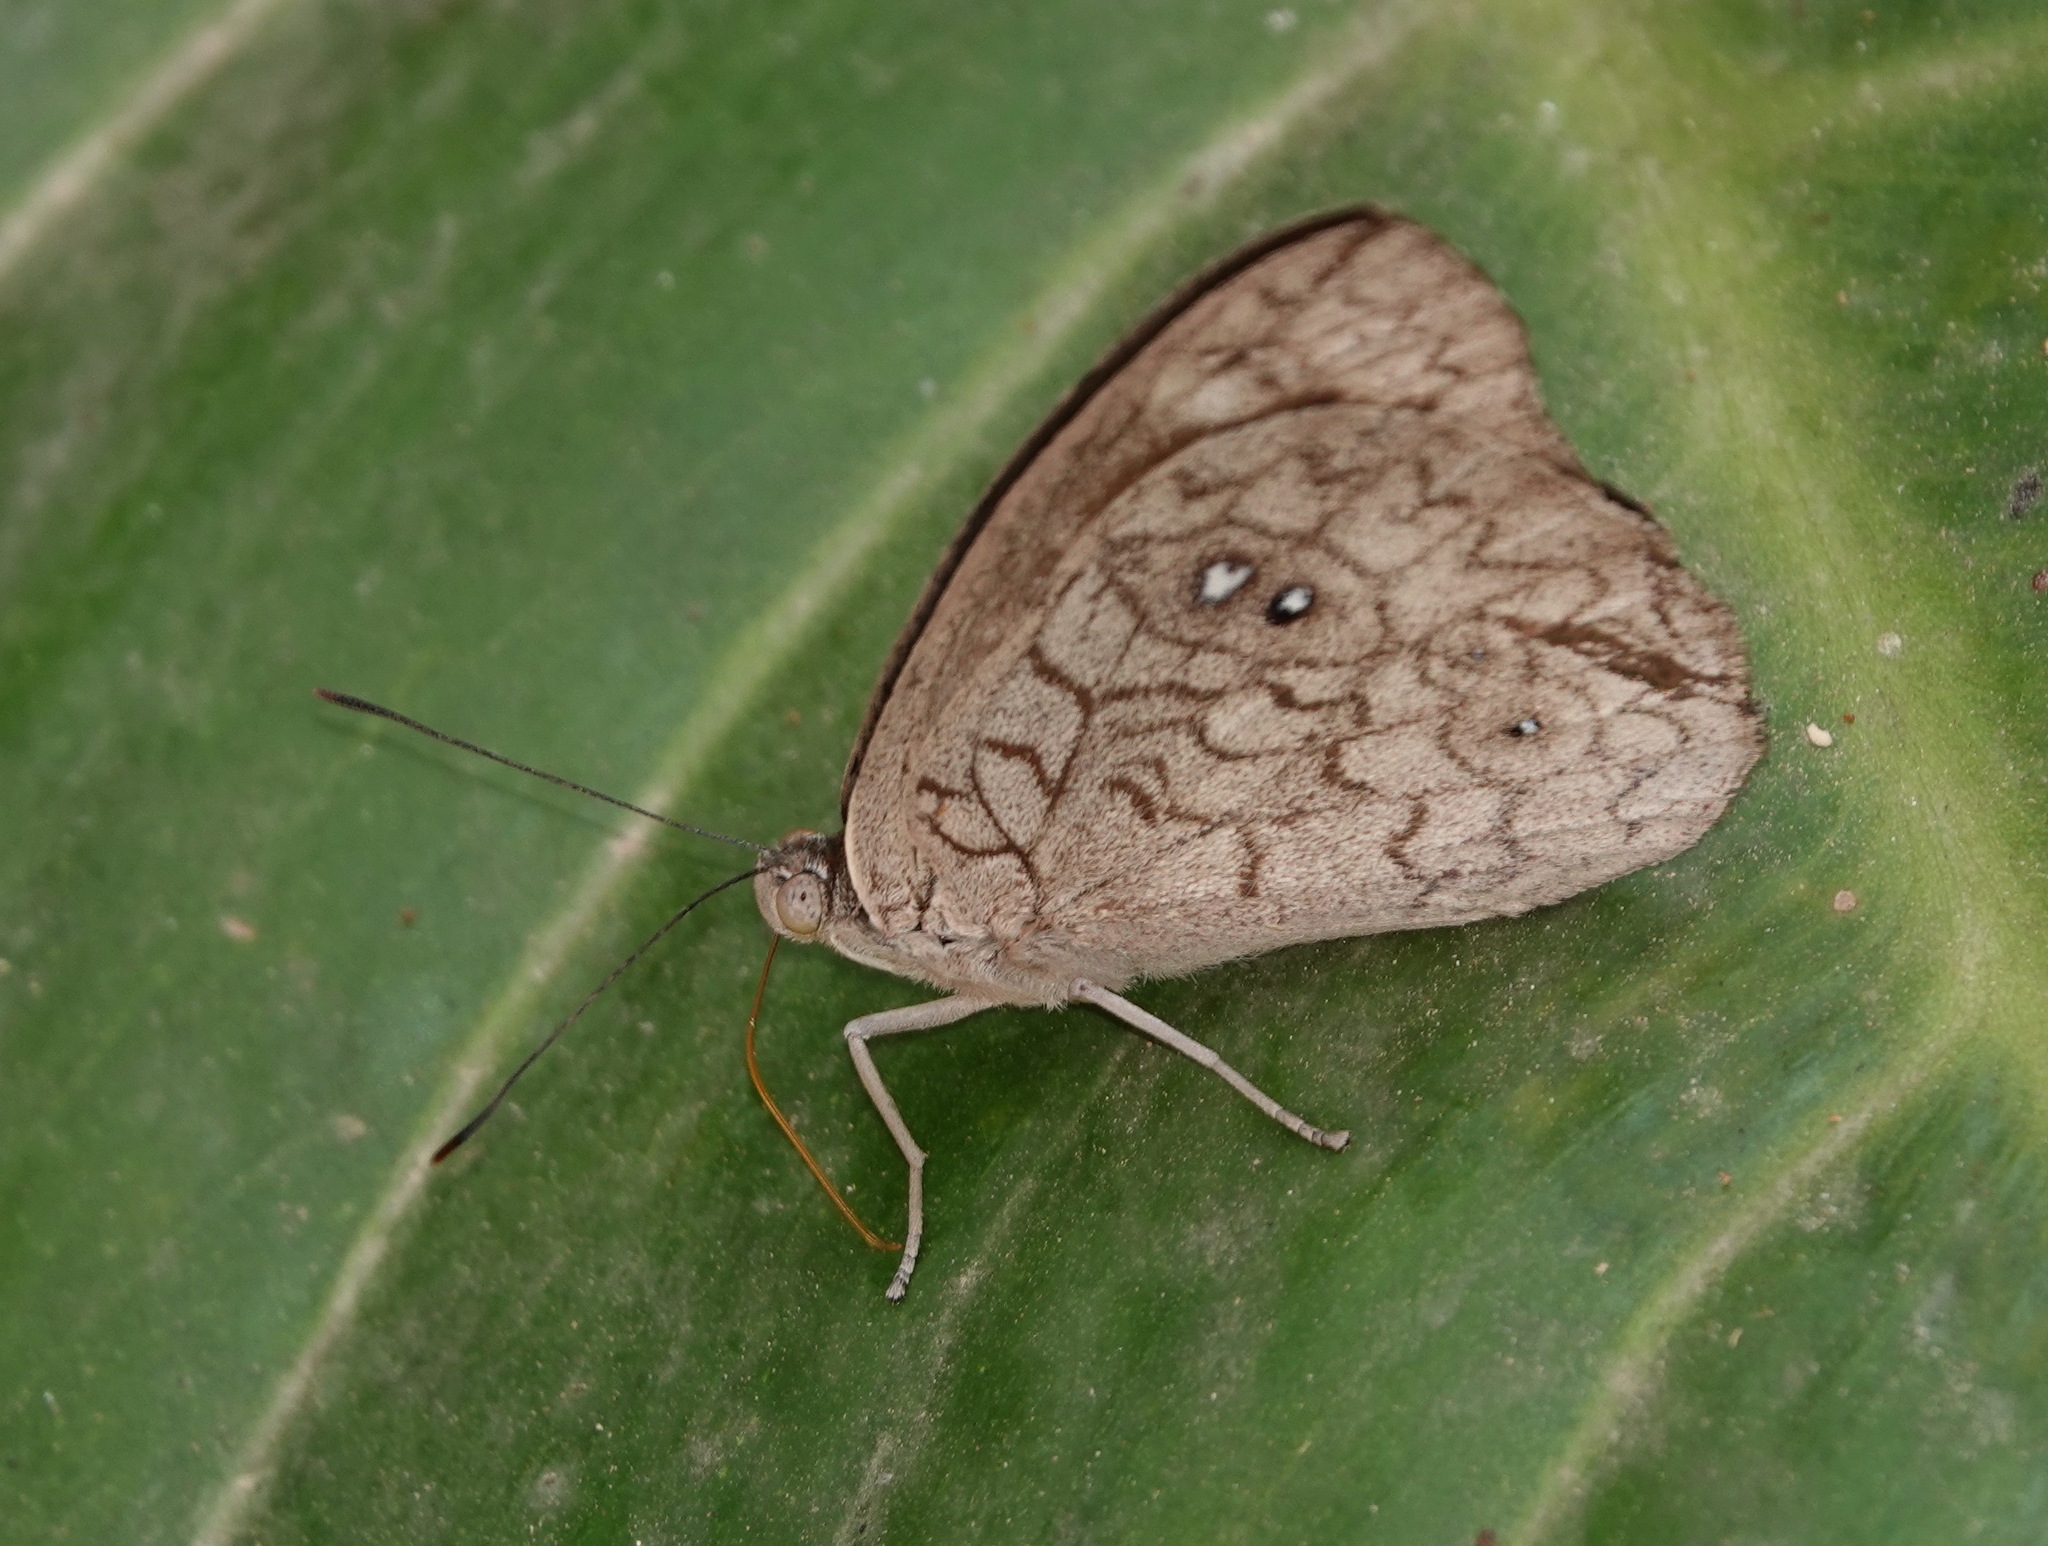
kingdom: Animalia
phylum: Arthropoda
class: Insecta
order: Lepidoptera
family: Nymphalidae
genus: Eunica
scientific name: Eunica clythia
